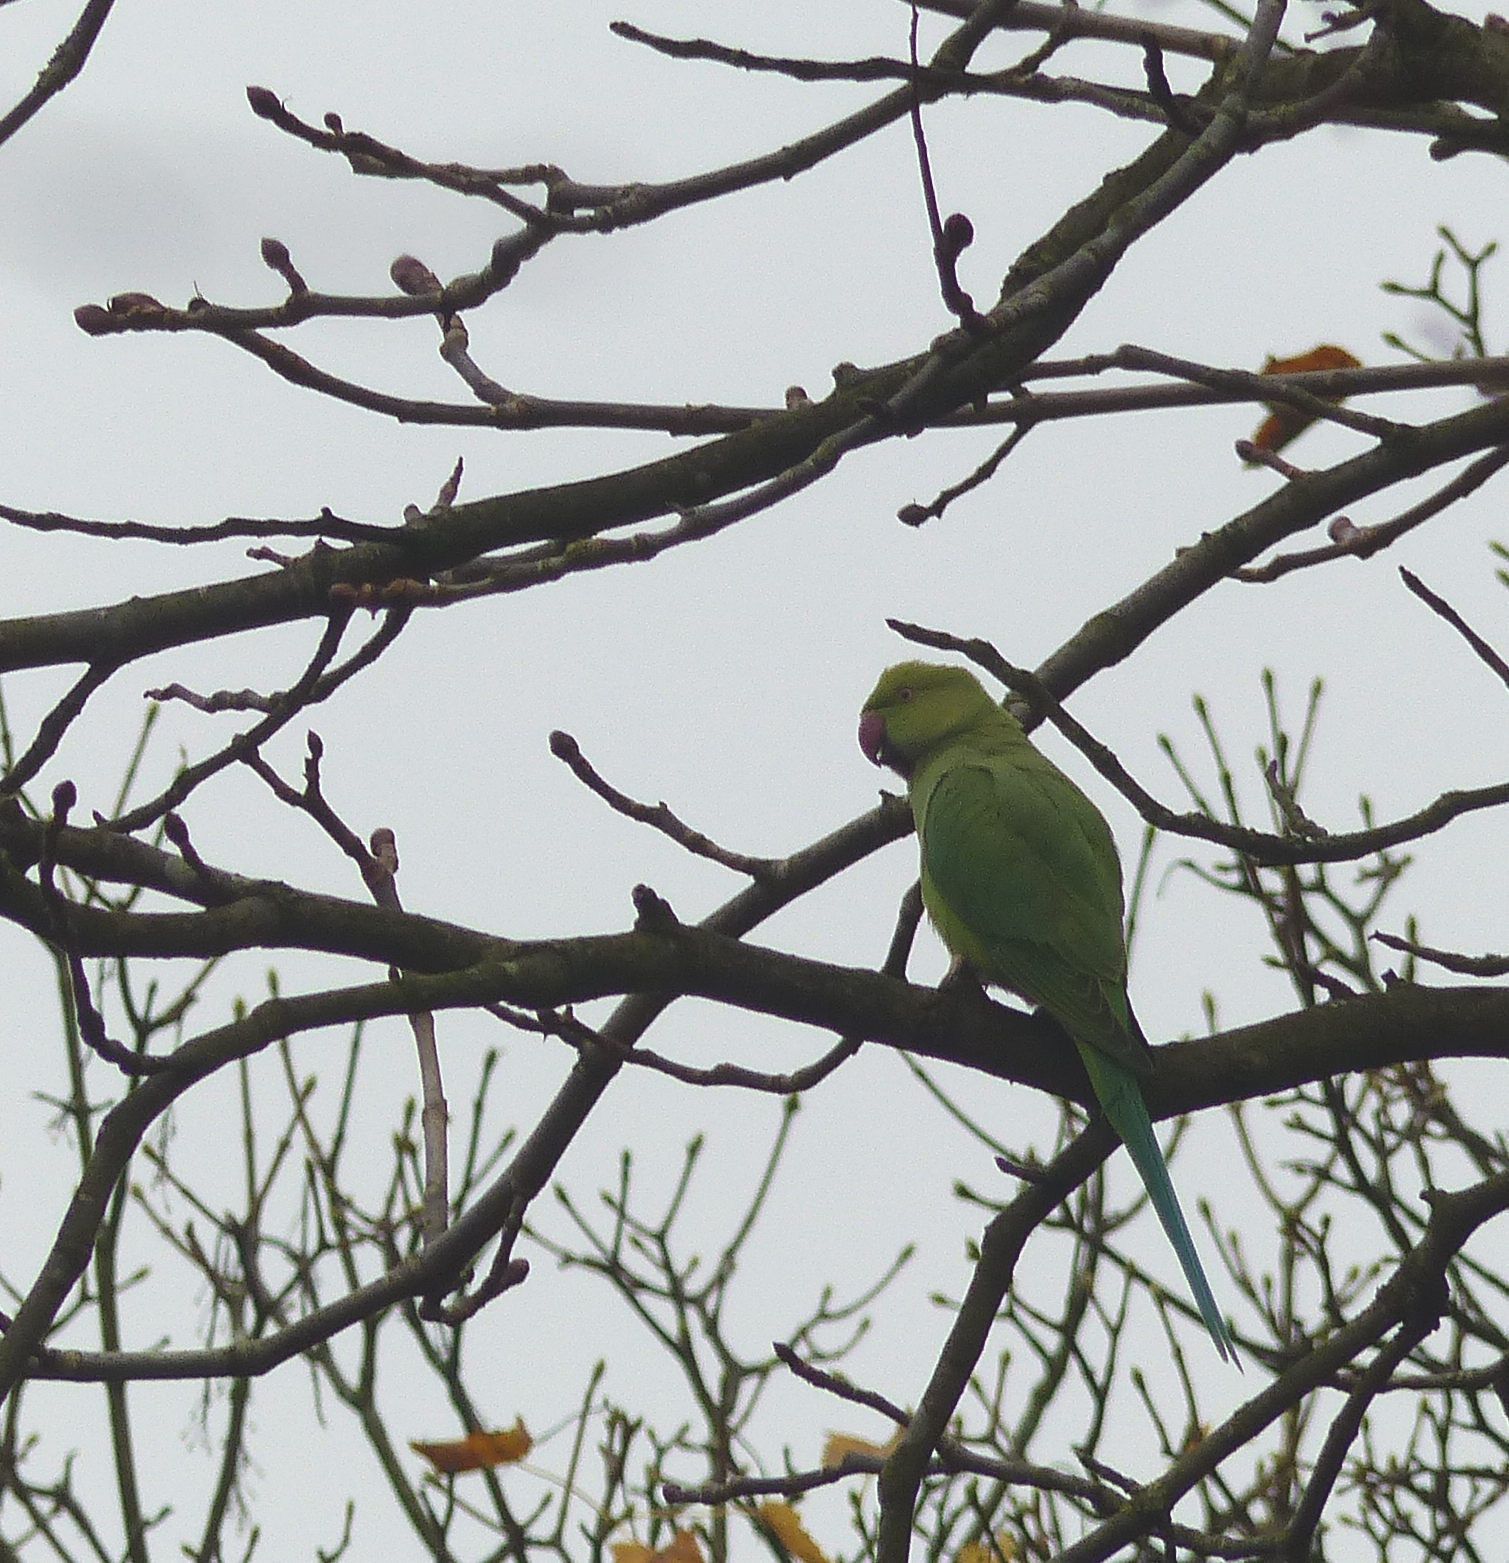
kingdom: Animalia
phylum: Chordata
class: Aves
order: Psittaciformes
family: Psittacidae
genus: Psittacula
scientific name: Psittacula krameri
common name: Rose-ringed parakeet
